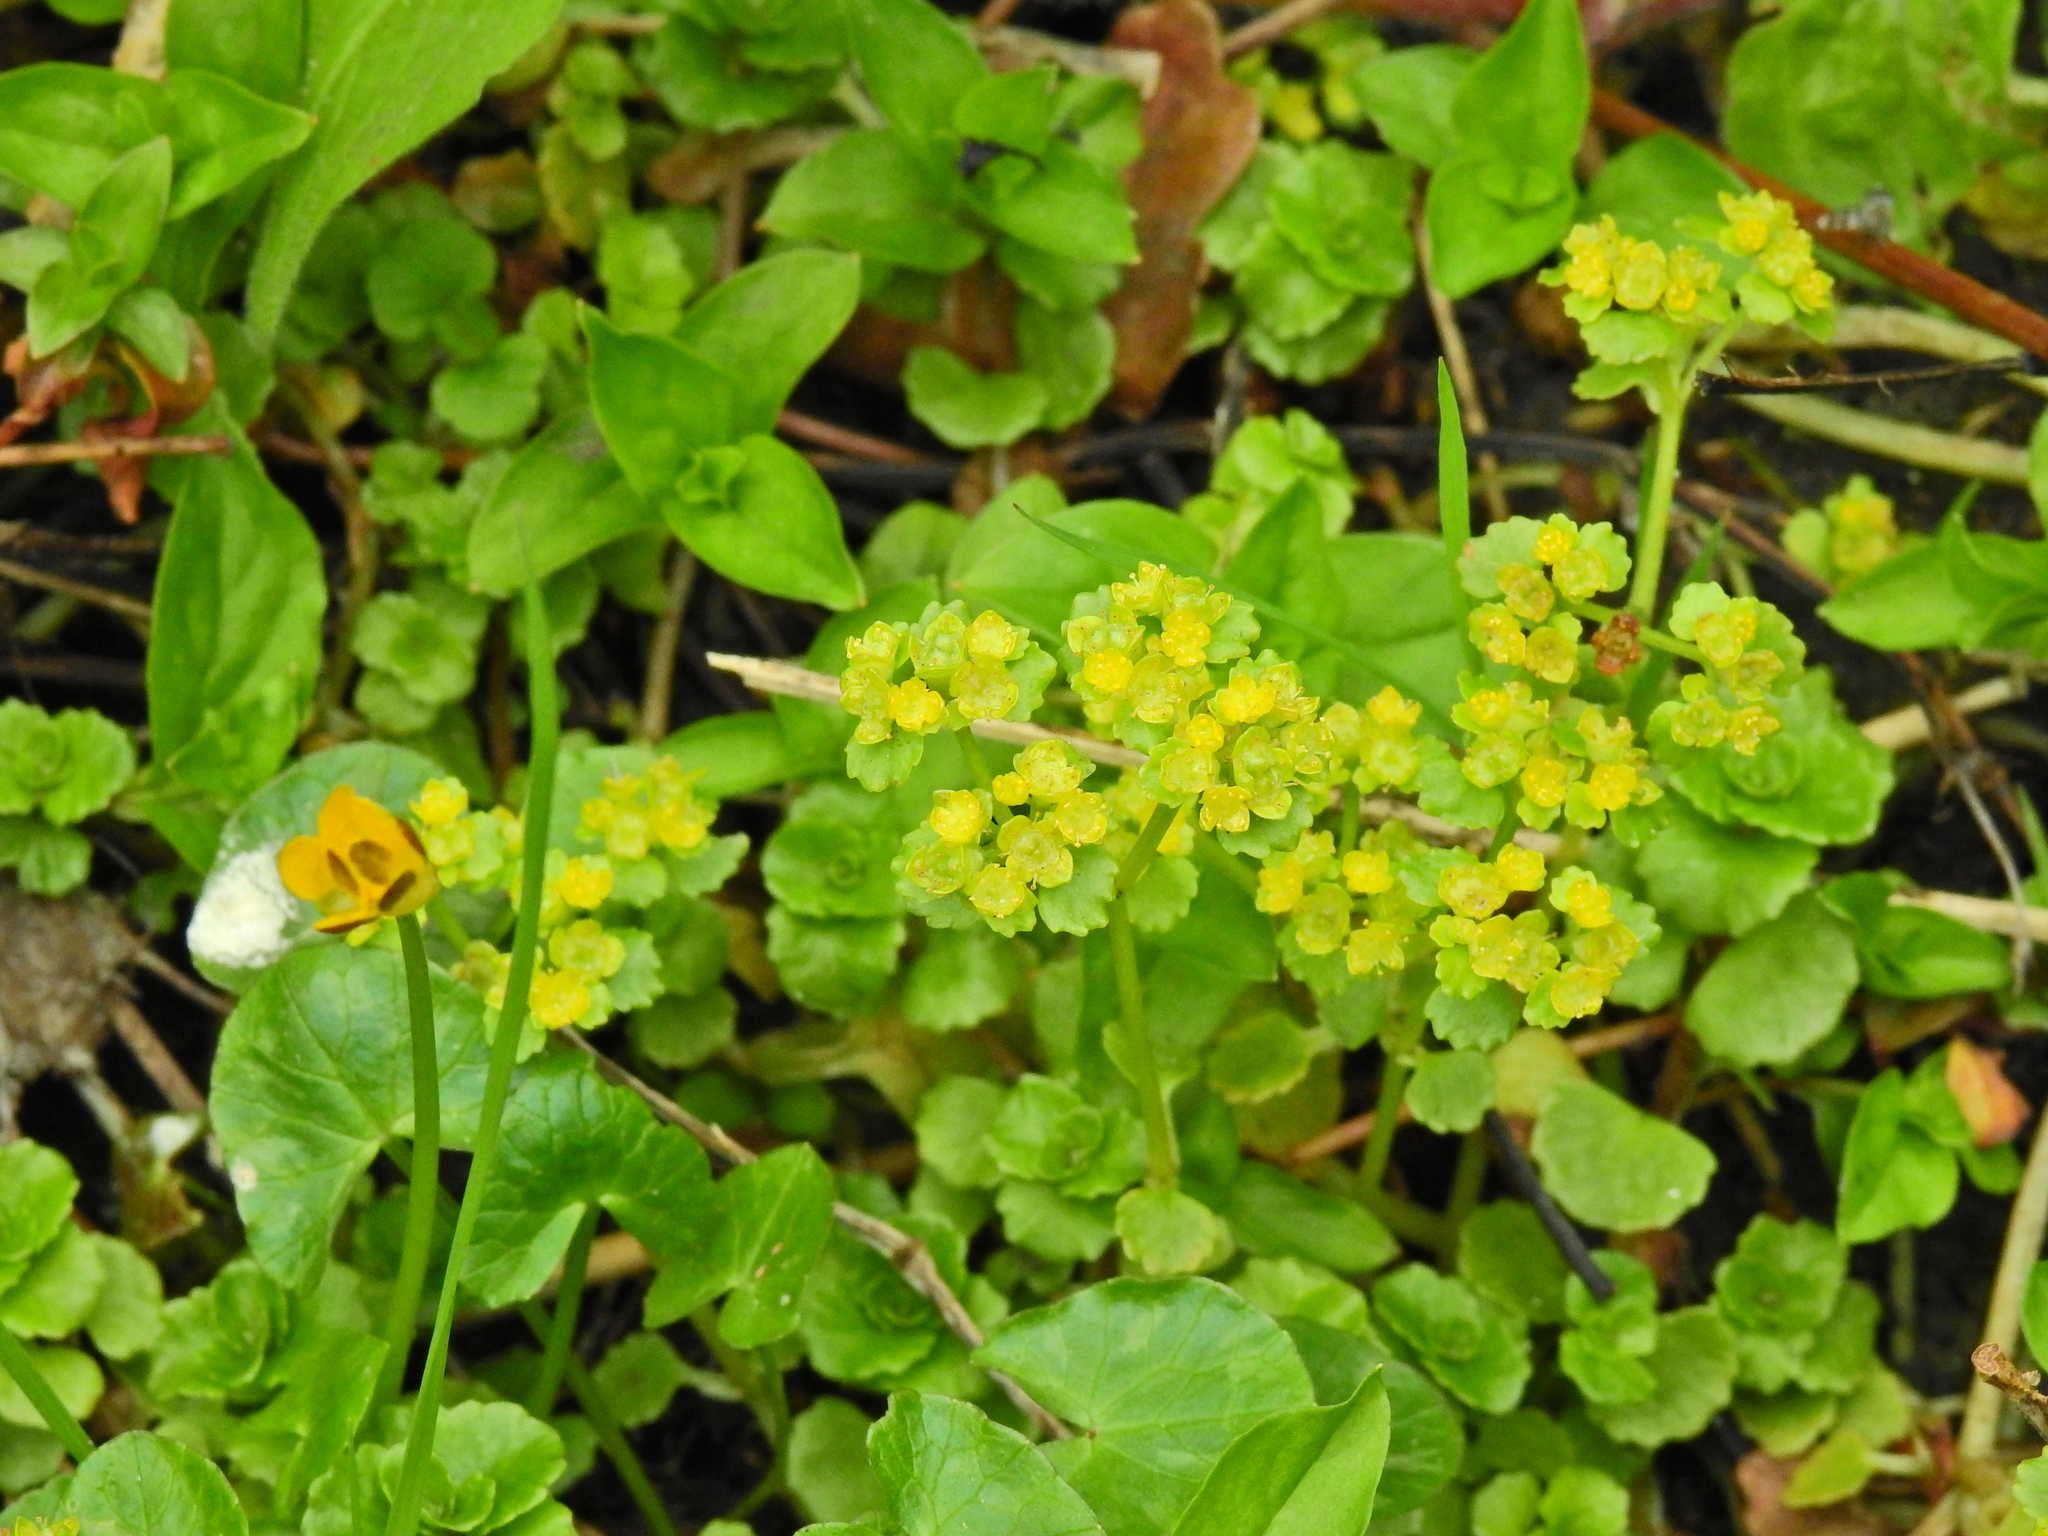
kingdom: Plantae
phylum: Tracheophyta
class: Magnoliopsida
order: Saxifragales
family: Saxifragaceae
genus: Chrysosplenium
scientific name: Chrysosplenium oppositifolium
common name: Opposite-leaved golden-saxifrage
